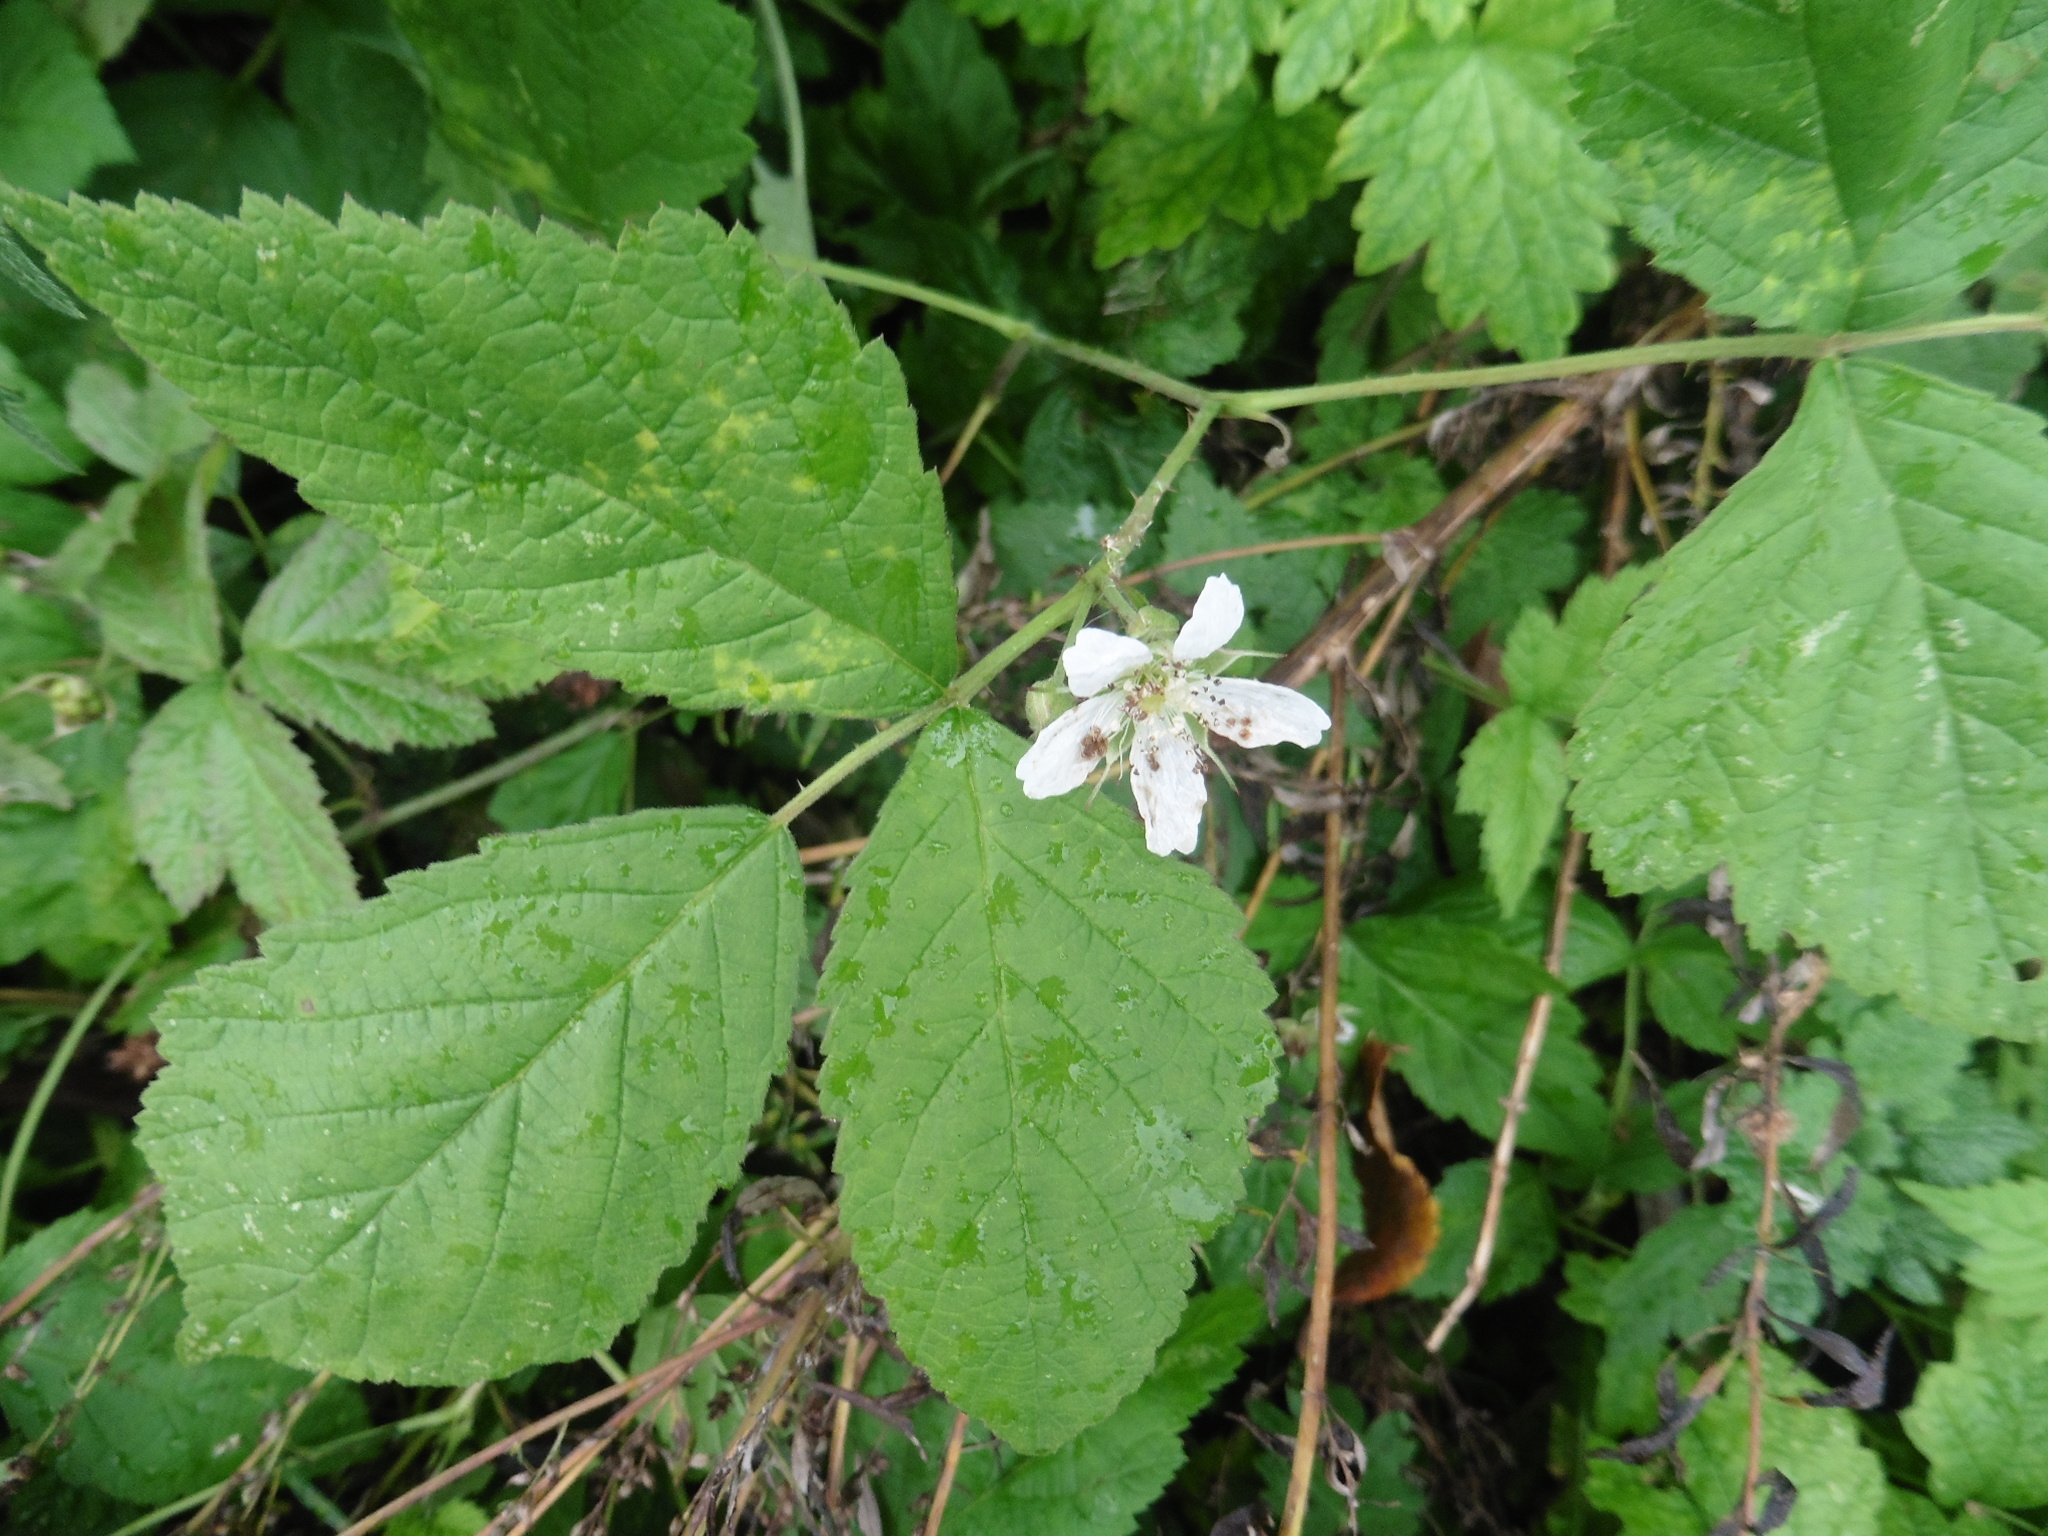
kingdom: Plantae
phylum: Tracheophyta
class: Magnoliopsida
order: Rosales
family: Rosaceae
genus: Rubus
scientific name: Rubus caesius
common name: Dewberry
